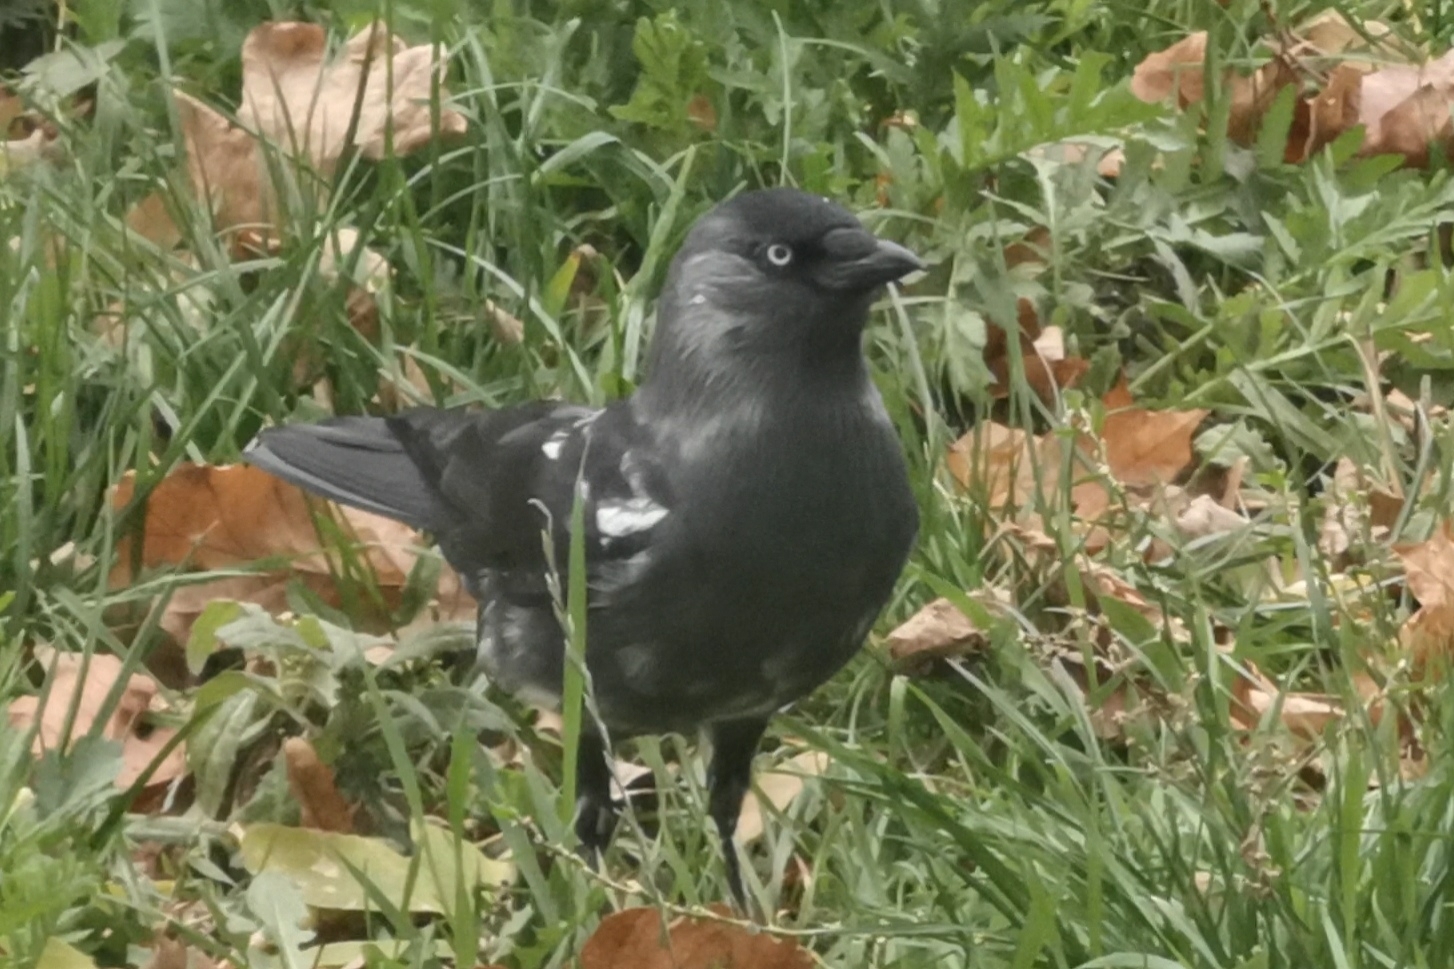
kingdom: Animalia
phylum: Chordata
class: Aves
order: Passeriformes
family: Corvidae
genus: Coloeus
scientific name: Coloeus monedula
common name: Western jackdaw
